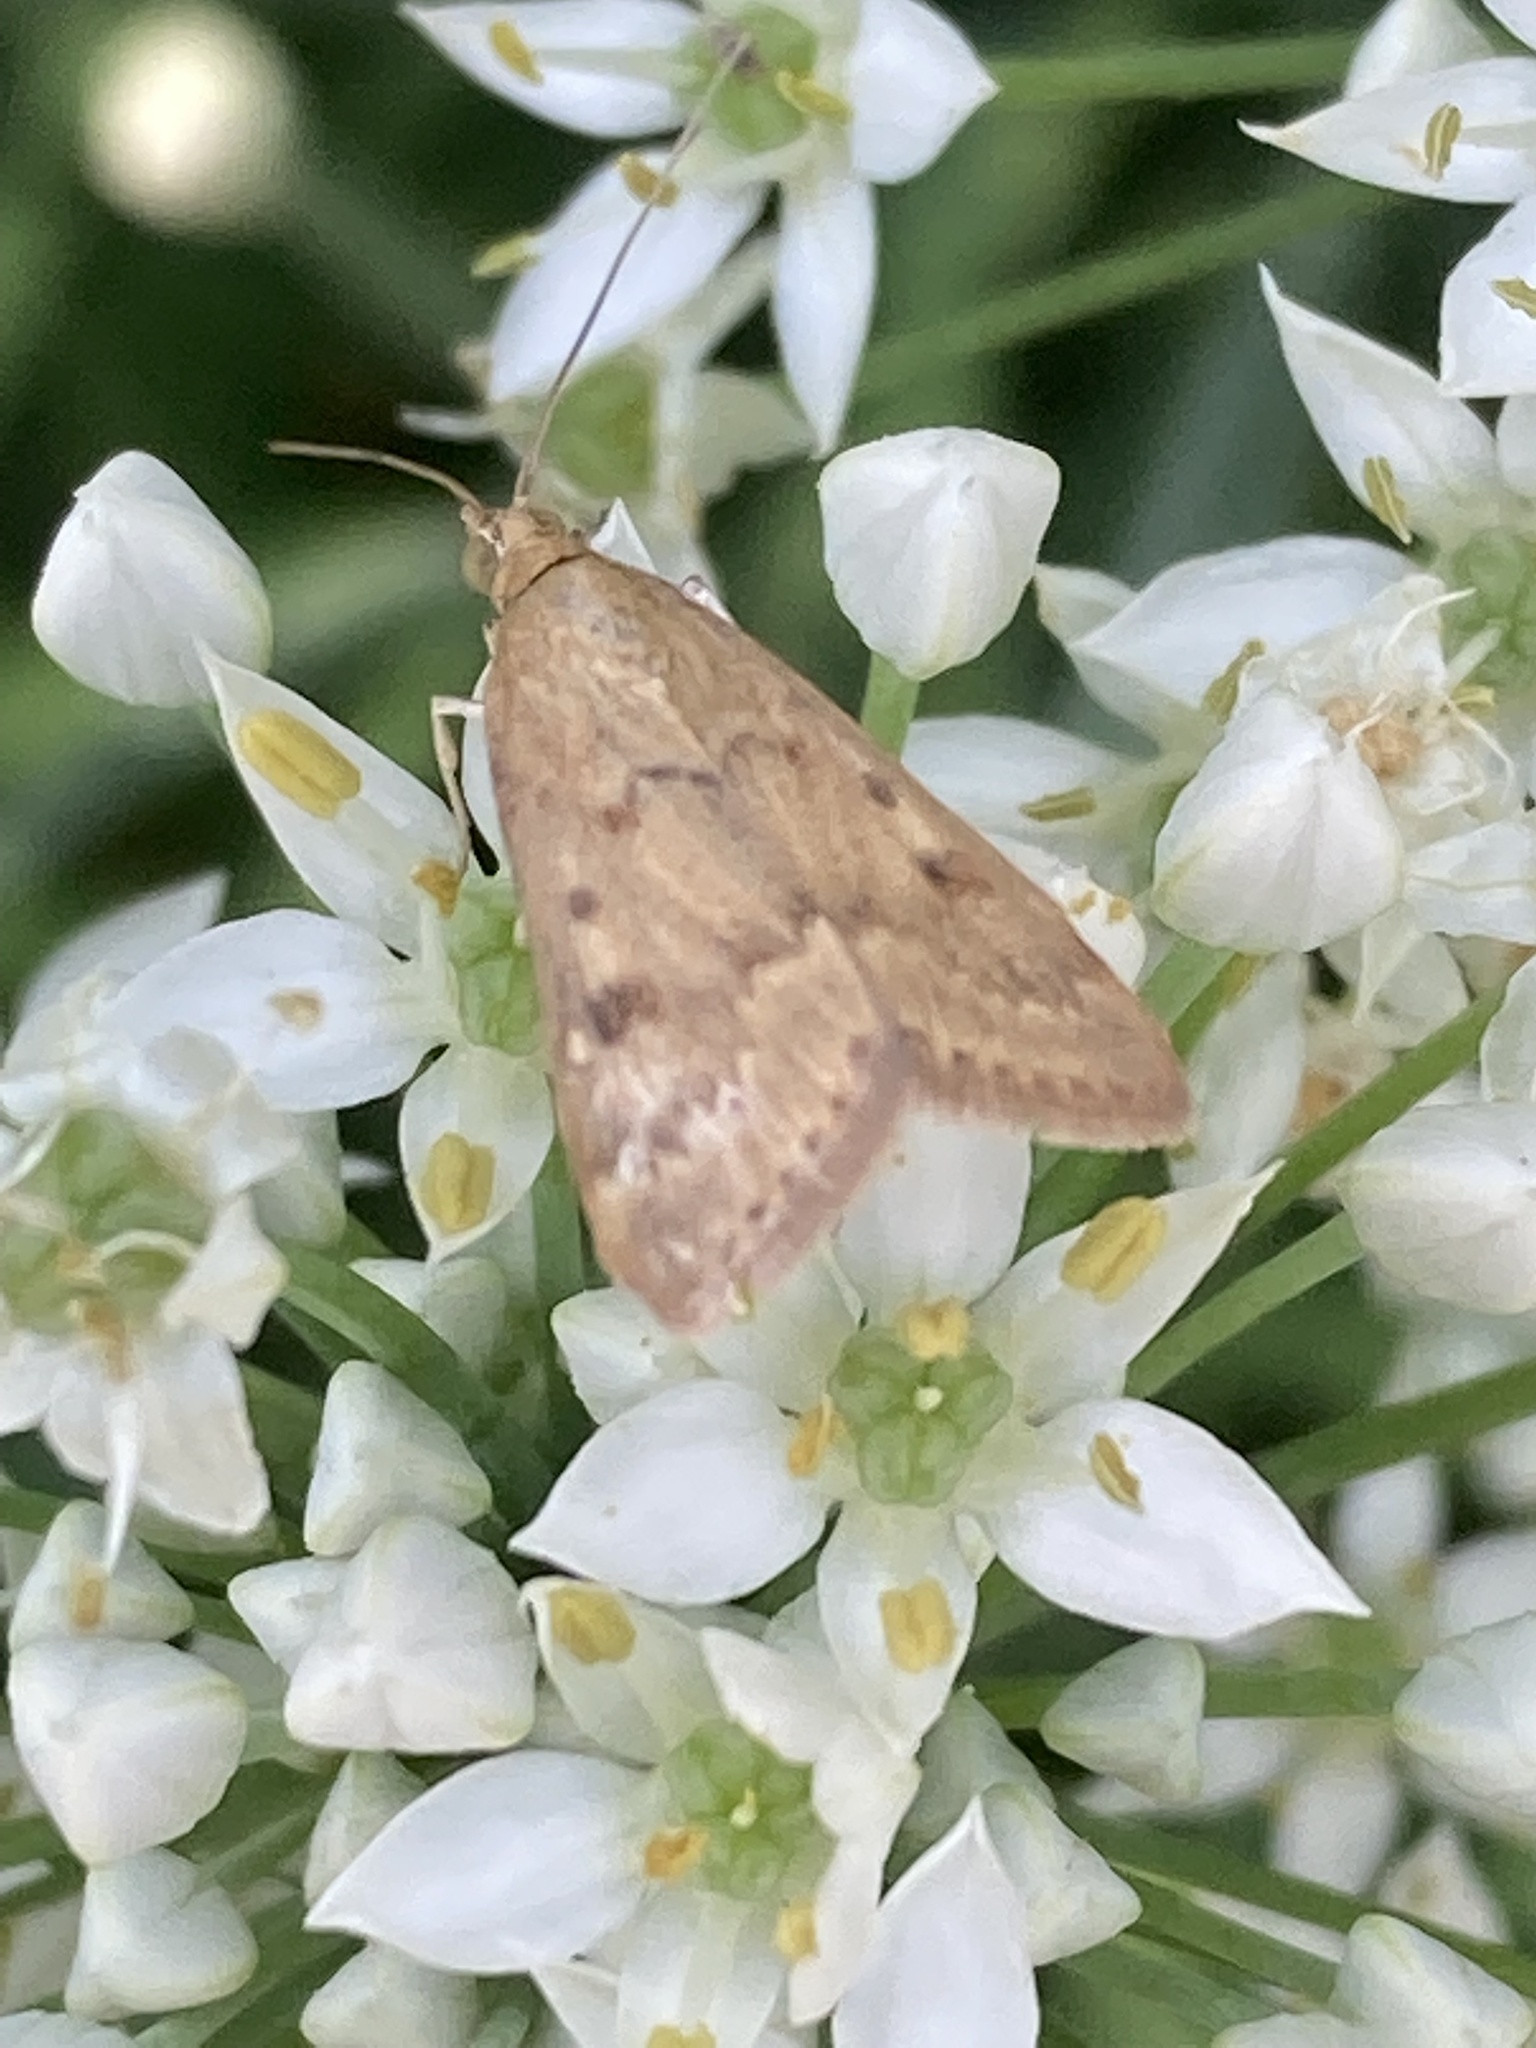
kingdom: Animalia
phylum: Arthropoda
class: Insecta
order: Lepidoptera
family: Crambidae
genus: Achyra
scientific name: Achyra rantalis
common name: Garden webworm
